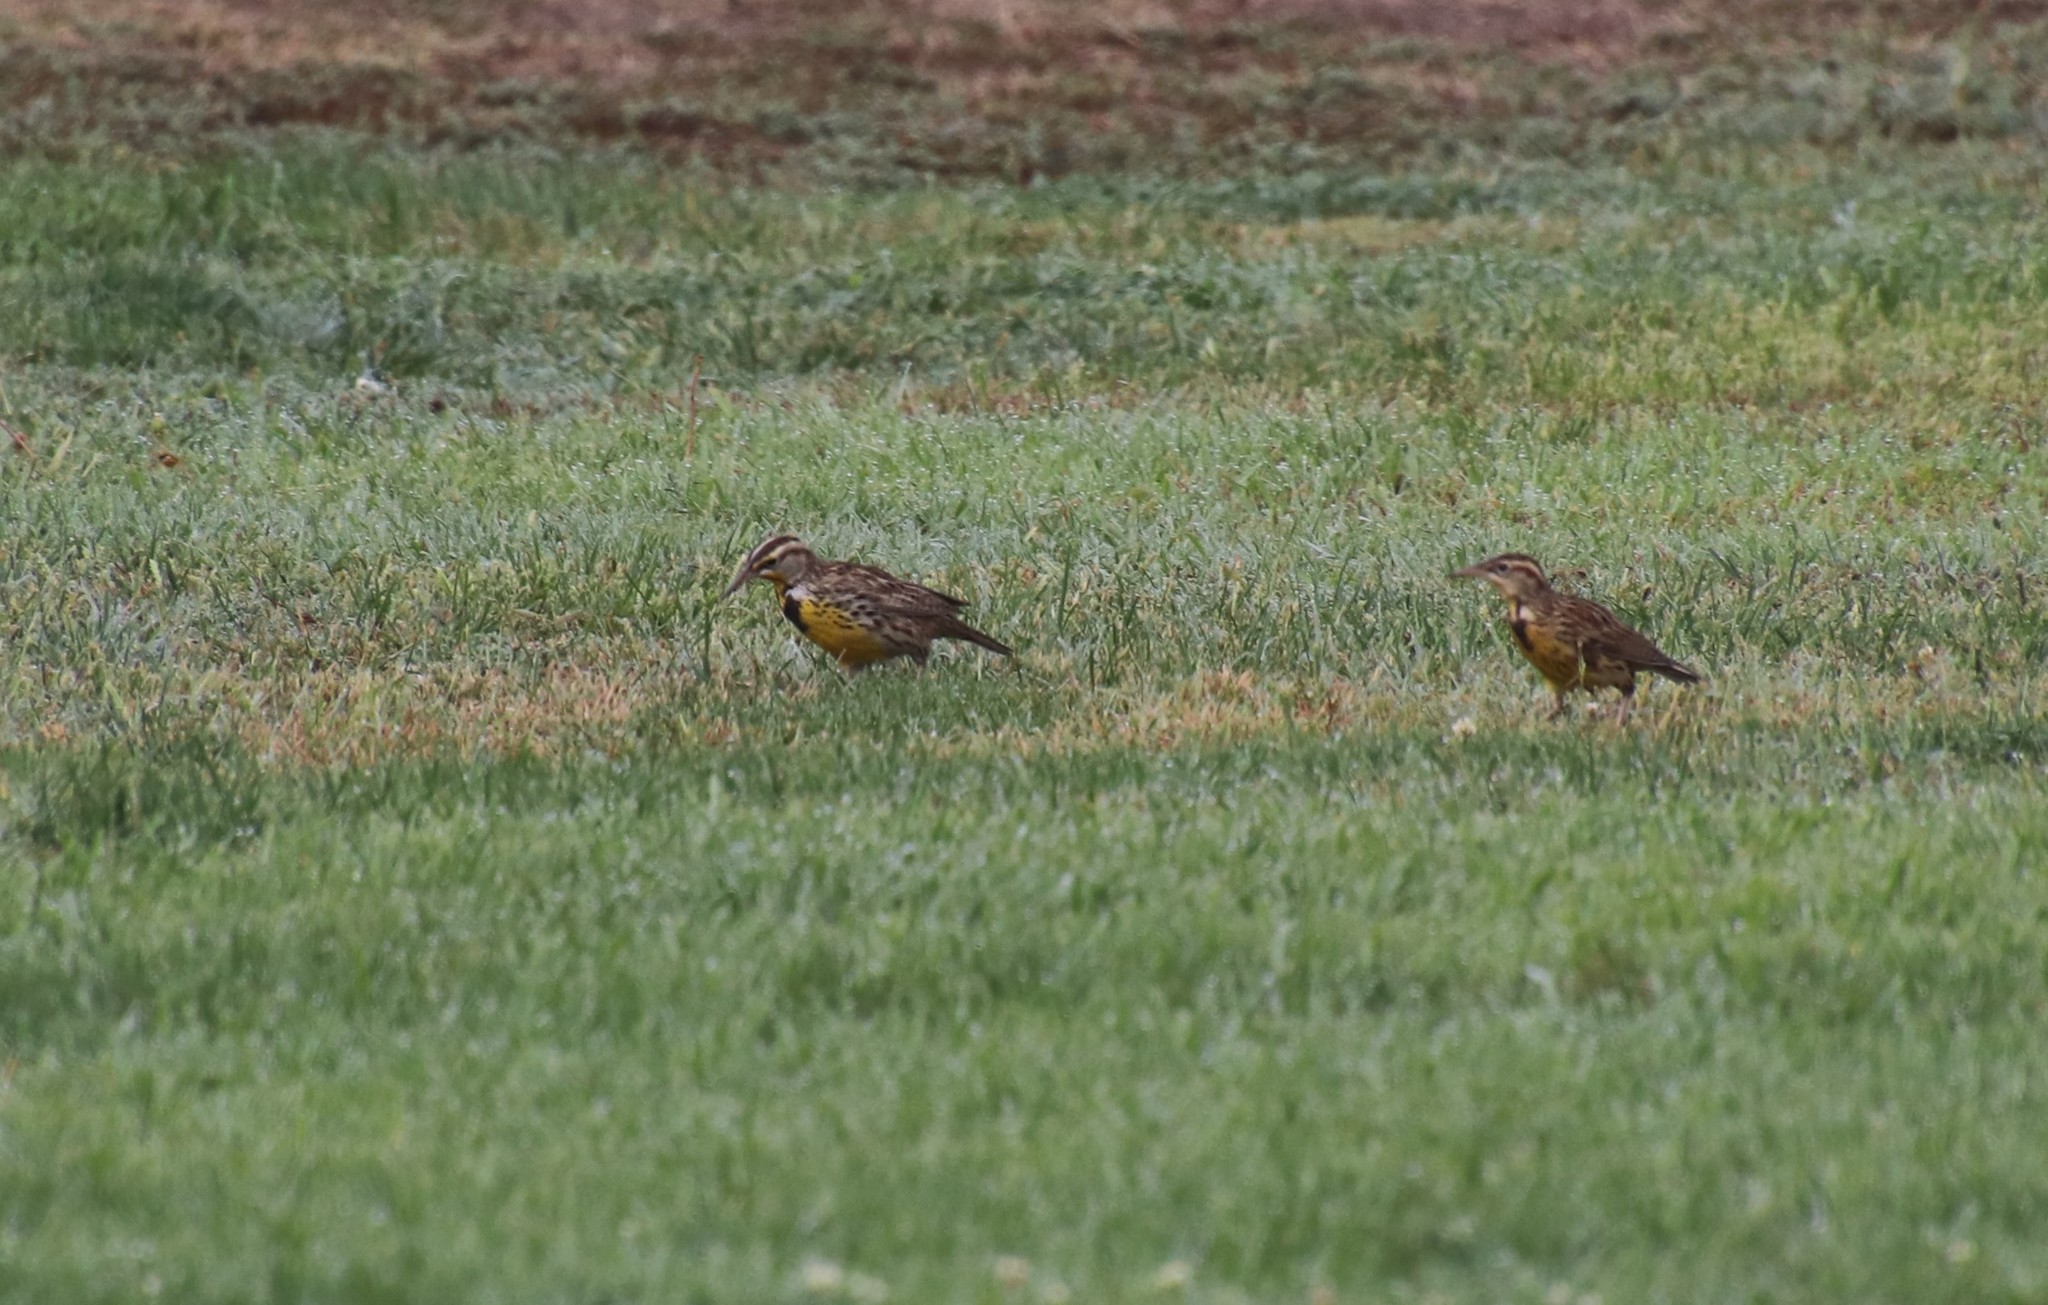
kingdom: Animalia
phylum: Chordata
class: Aves
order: Passeriformes
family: Icteridae
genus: Sturnella
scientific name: Sturnella neglecta
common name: Western meadowlark
